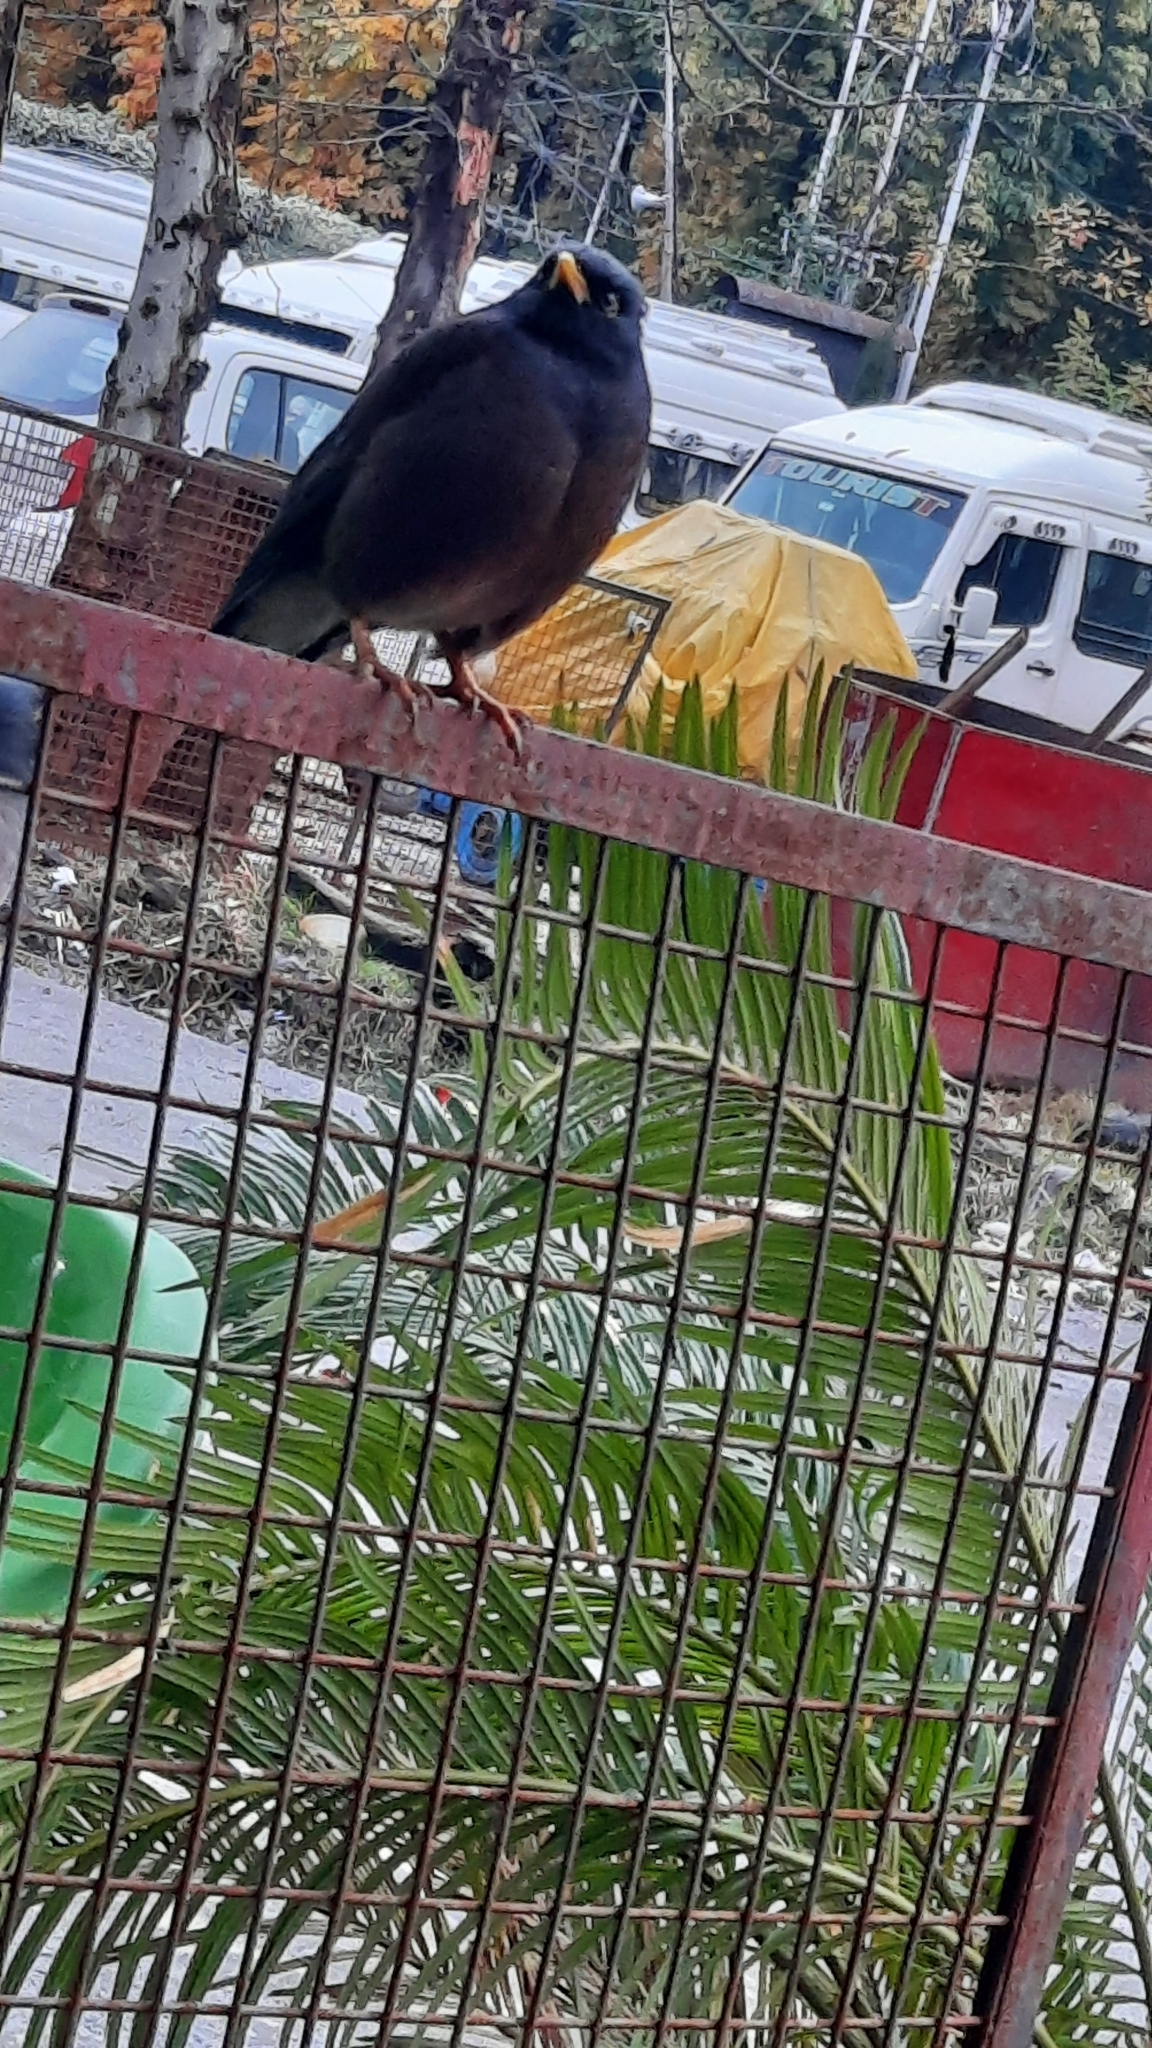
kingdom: Animalia
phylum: Chordata
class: Aves
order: Passeriformes
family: Sturnidae
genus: Acridotheres
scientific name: Acridotheres tristis
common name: Common myna
